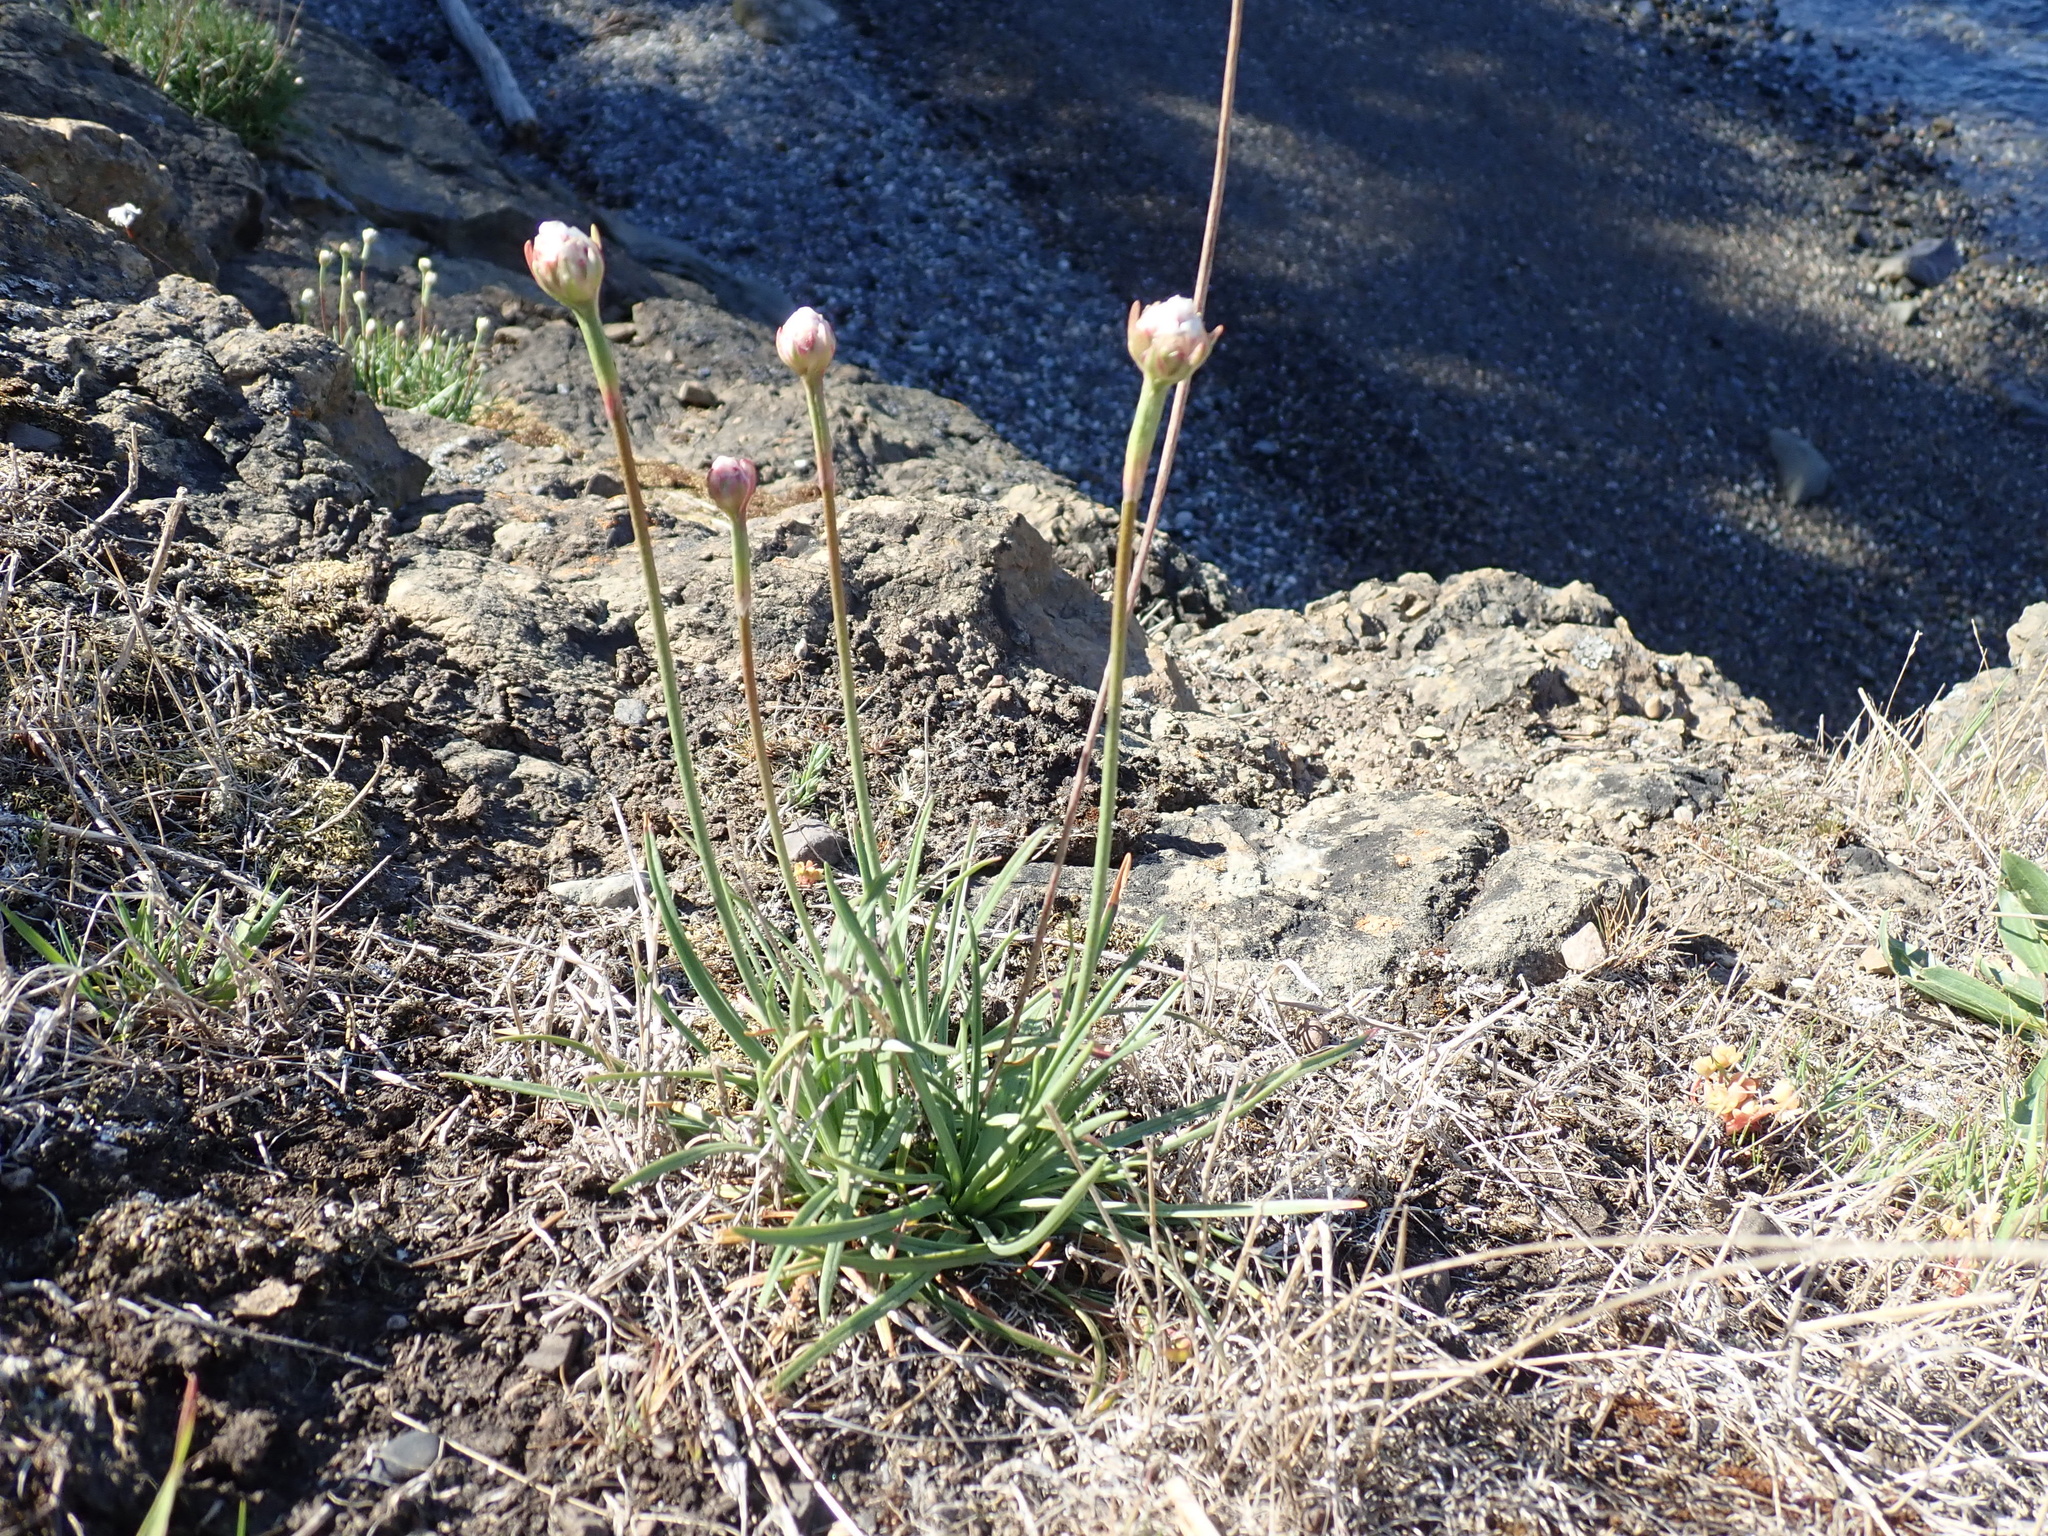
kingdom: Plantae
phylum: Tracheophyta
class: Magnoliopsida
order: Caryophyllales
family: Plumbaginaceae
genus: Armeria
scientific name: Armeria maritima
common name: Thrift
